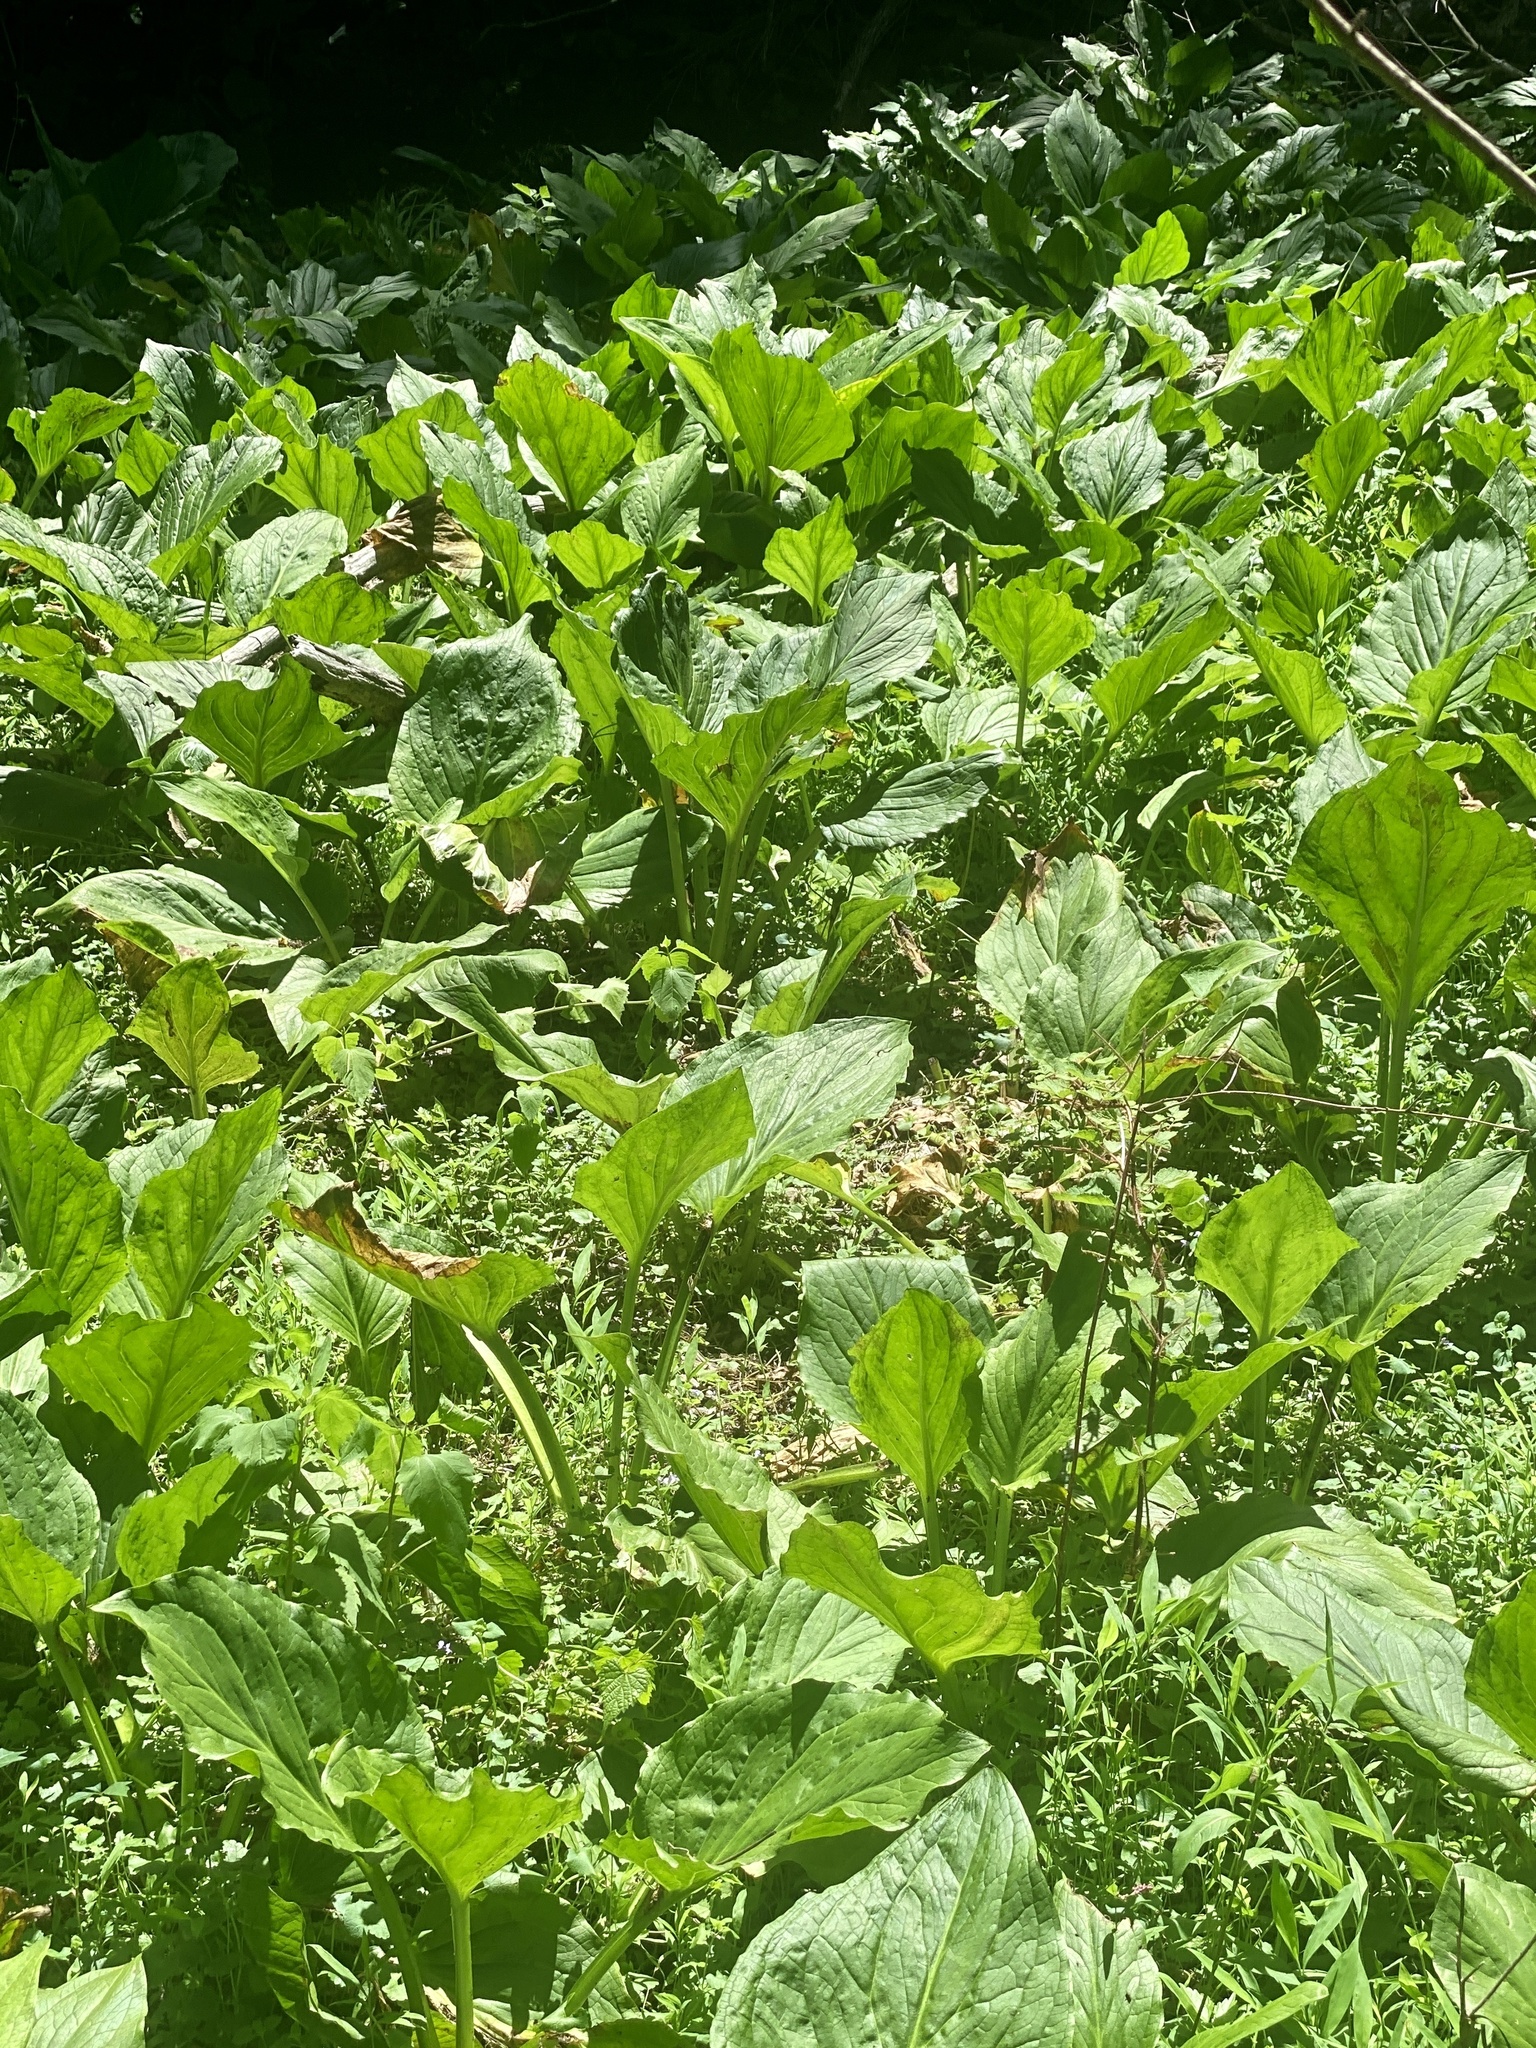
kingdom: Plantae
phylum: Tracheophyta
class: Liliopsida
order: Alismatales
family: Araceae
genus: Symplocarpus
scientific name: Symplocarpus foetidus
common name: Eastern skunk cabbage
